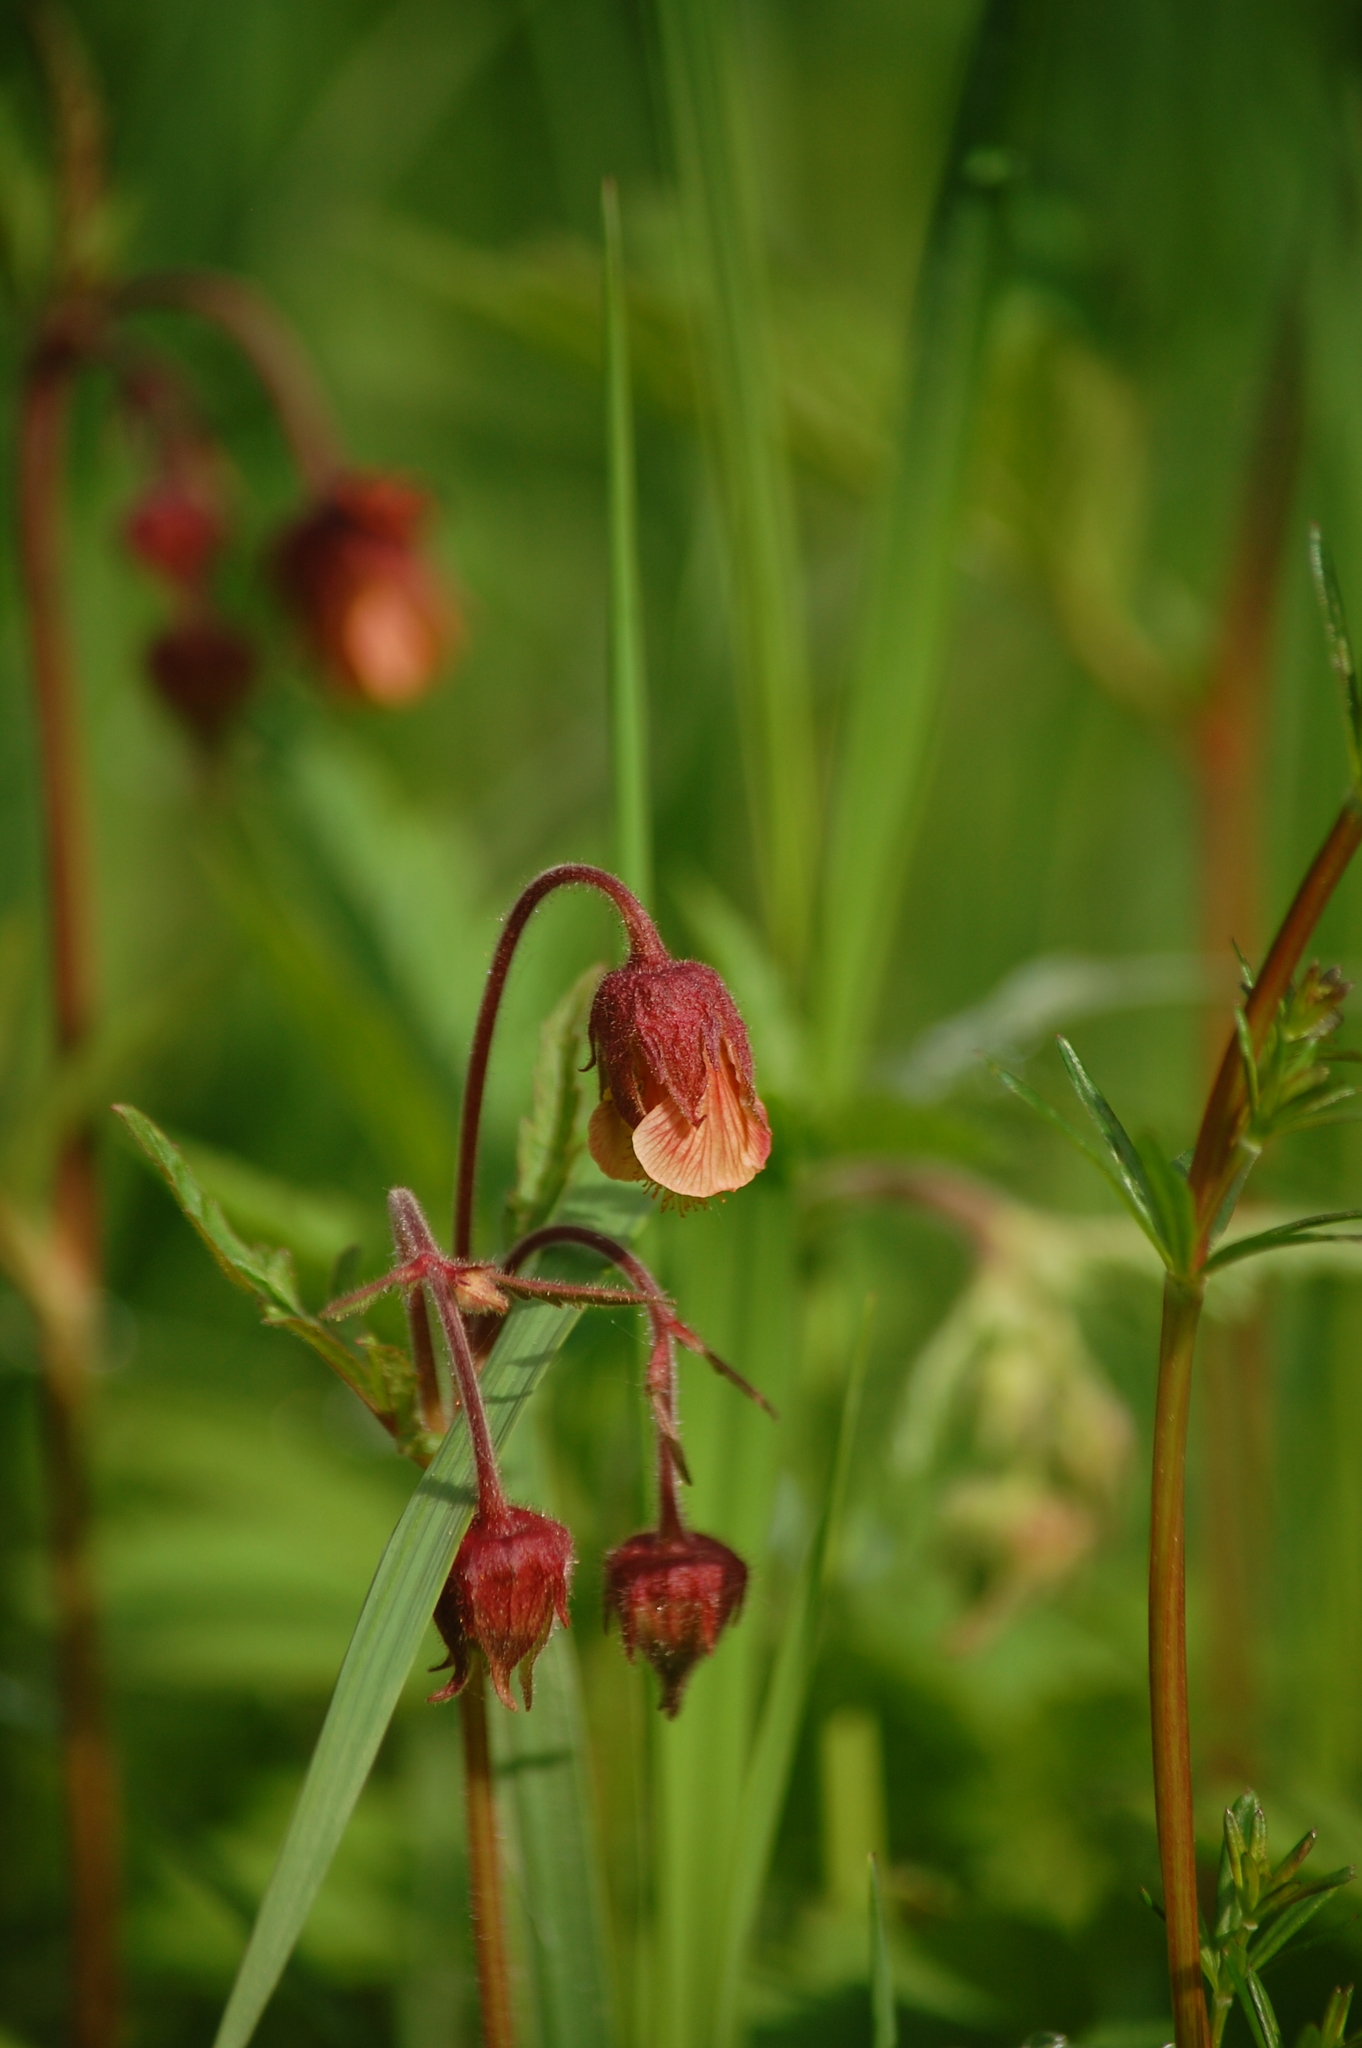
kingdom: Plantae
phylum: Tracheophyta
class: Magnoliopsida
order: Rosales
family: Rosaceae
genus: Geum
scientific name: Geum rivale
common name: Water avens
